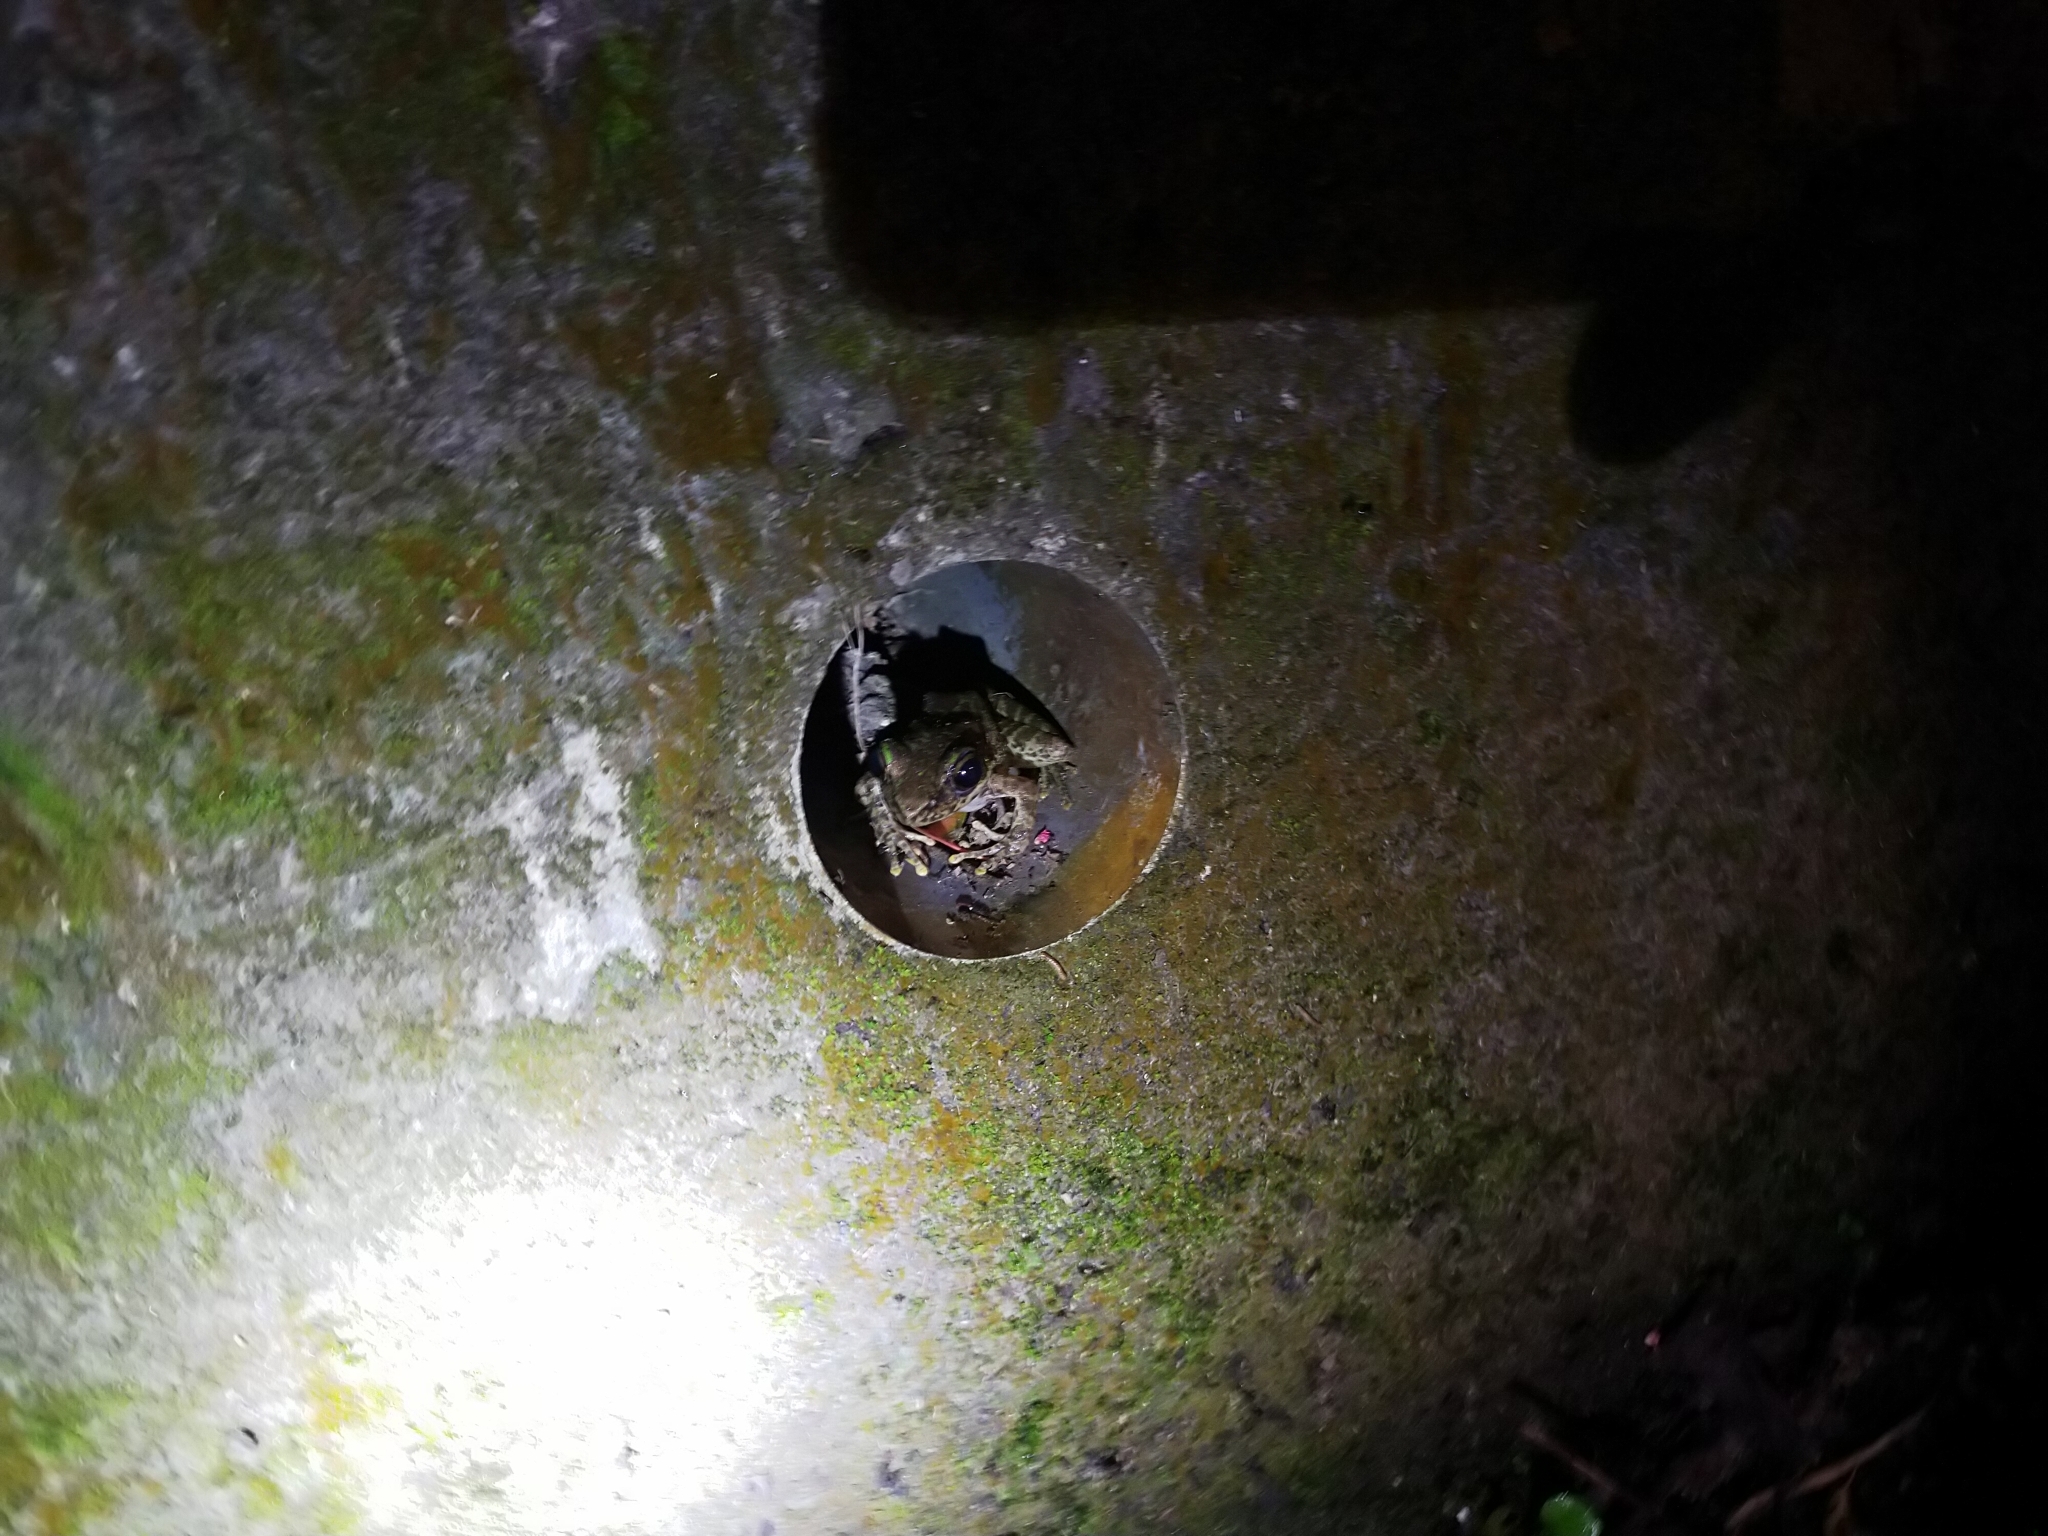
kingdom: Animalia
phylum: Chordata
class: Amphibia
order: Anura
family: Ranidae
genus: Odorrana
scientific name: Odorrana swinhoana
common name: Bangkimtsing frog
